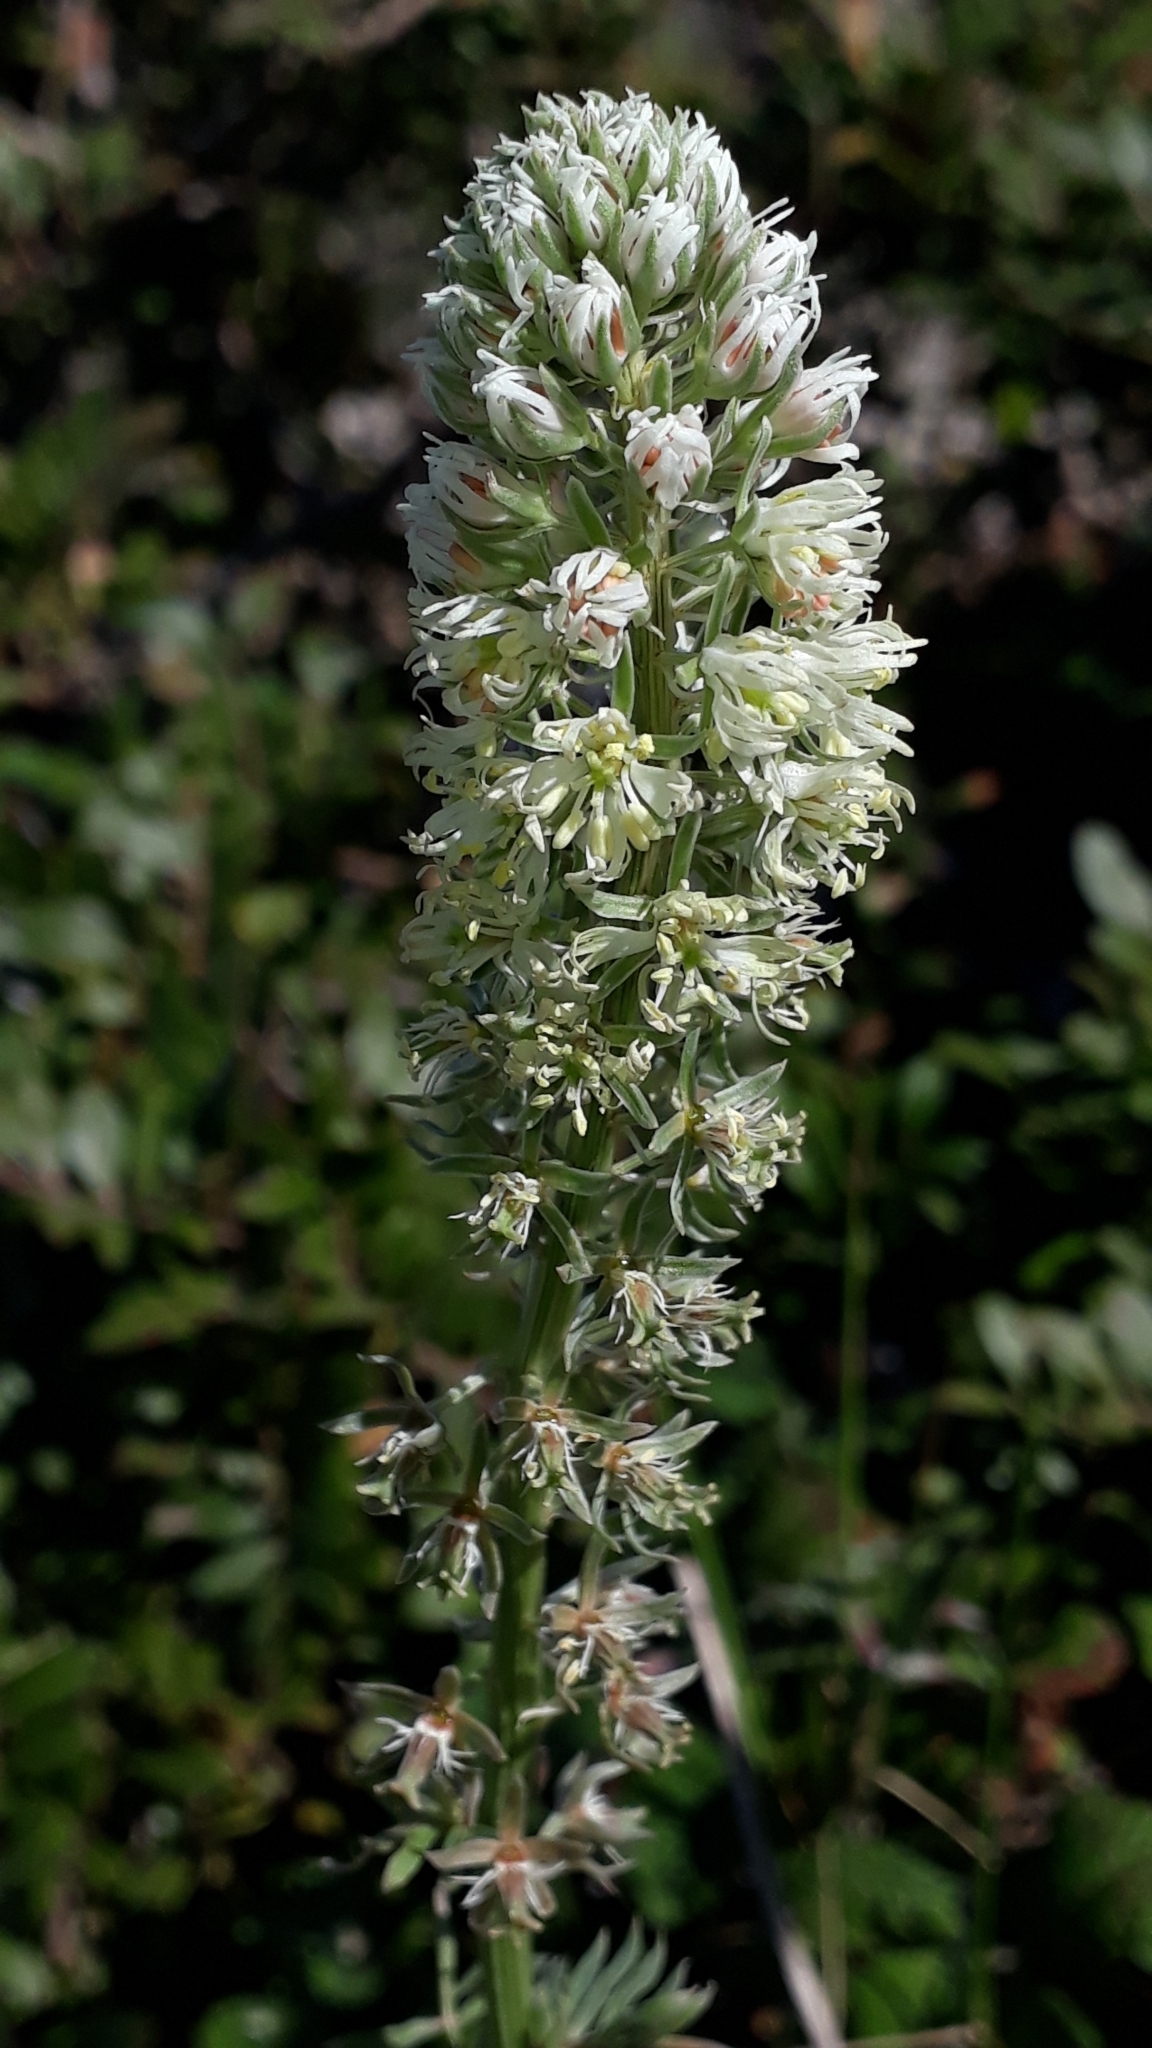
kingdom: Plantae
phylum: Tracheophyta
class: Magnoliopsida
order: Brassicales
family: Resedaceae
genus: Reseda
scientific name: Reseda alba
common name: White mignonette
